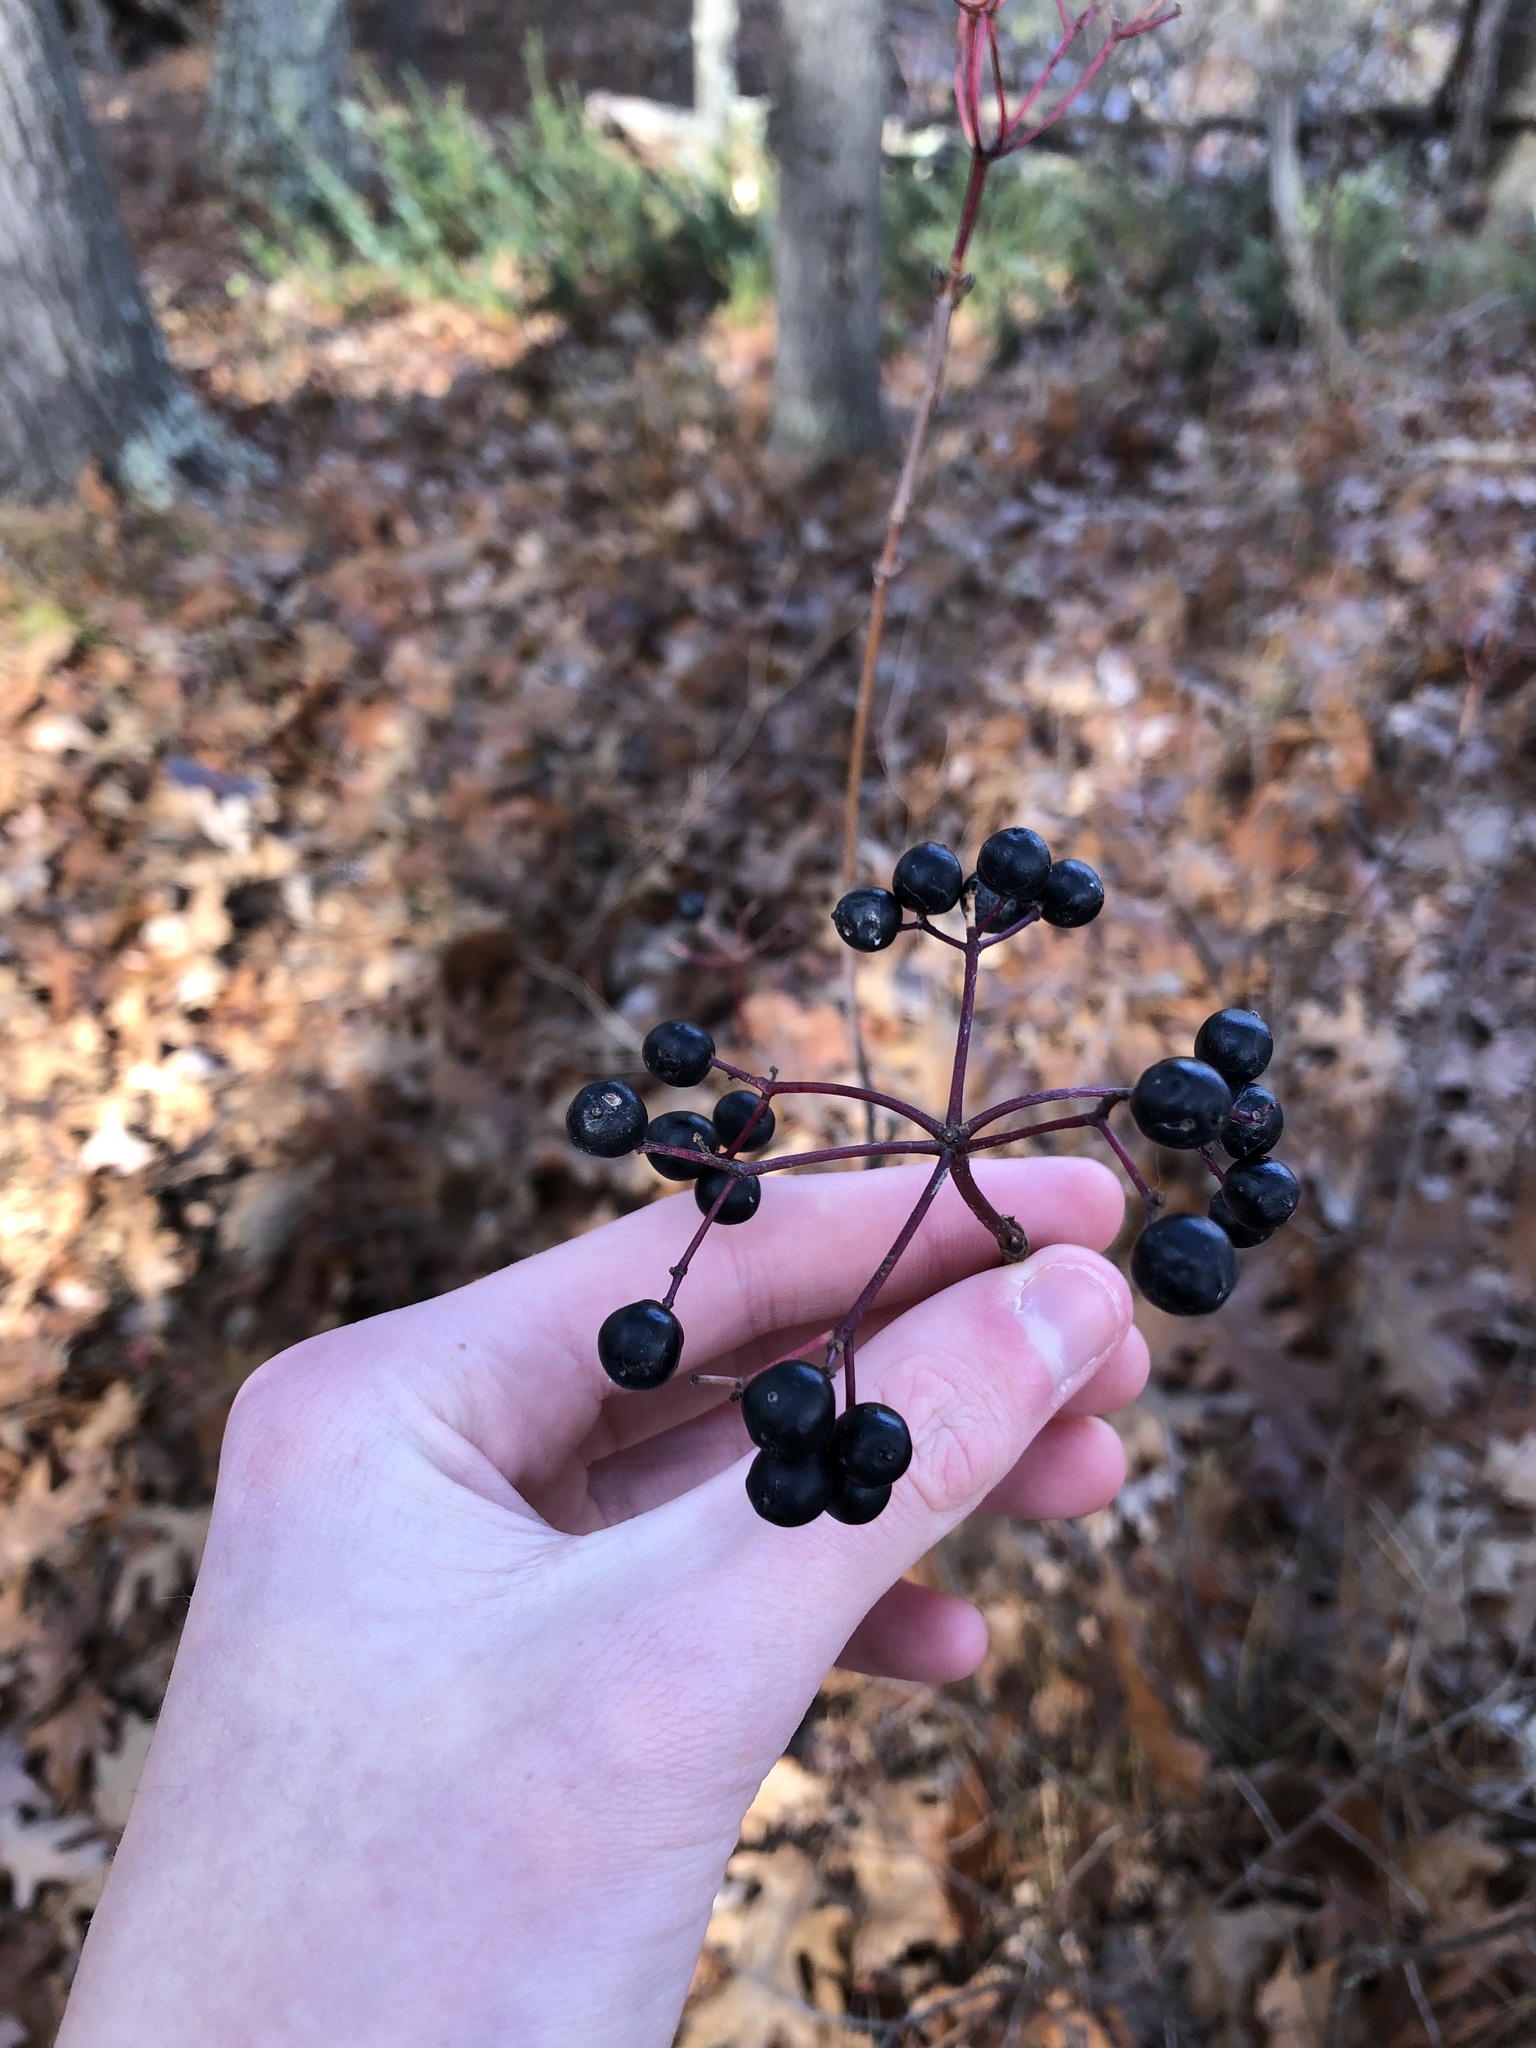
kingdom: Plantae
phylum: Tracheophyta
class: Magnoliopsida
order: Dipsacales
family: Viburnaceae
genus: Viburnum
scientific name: Viburnum acerifolium
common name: Dockmackie
